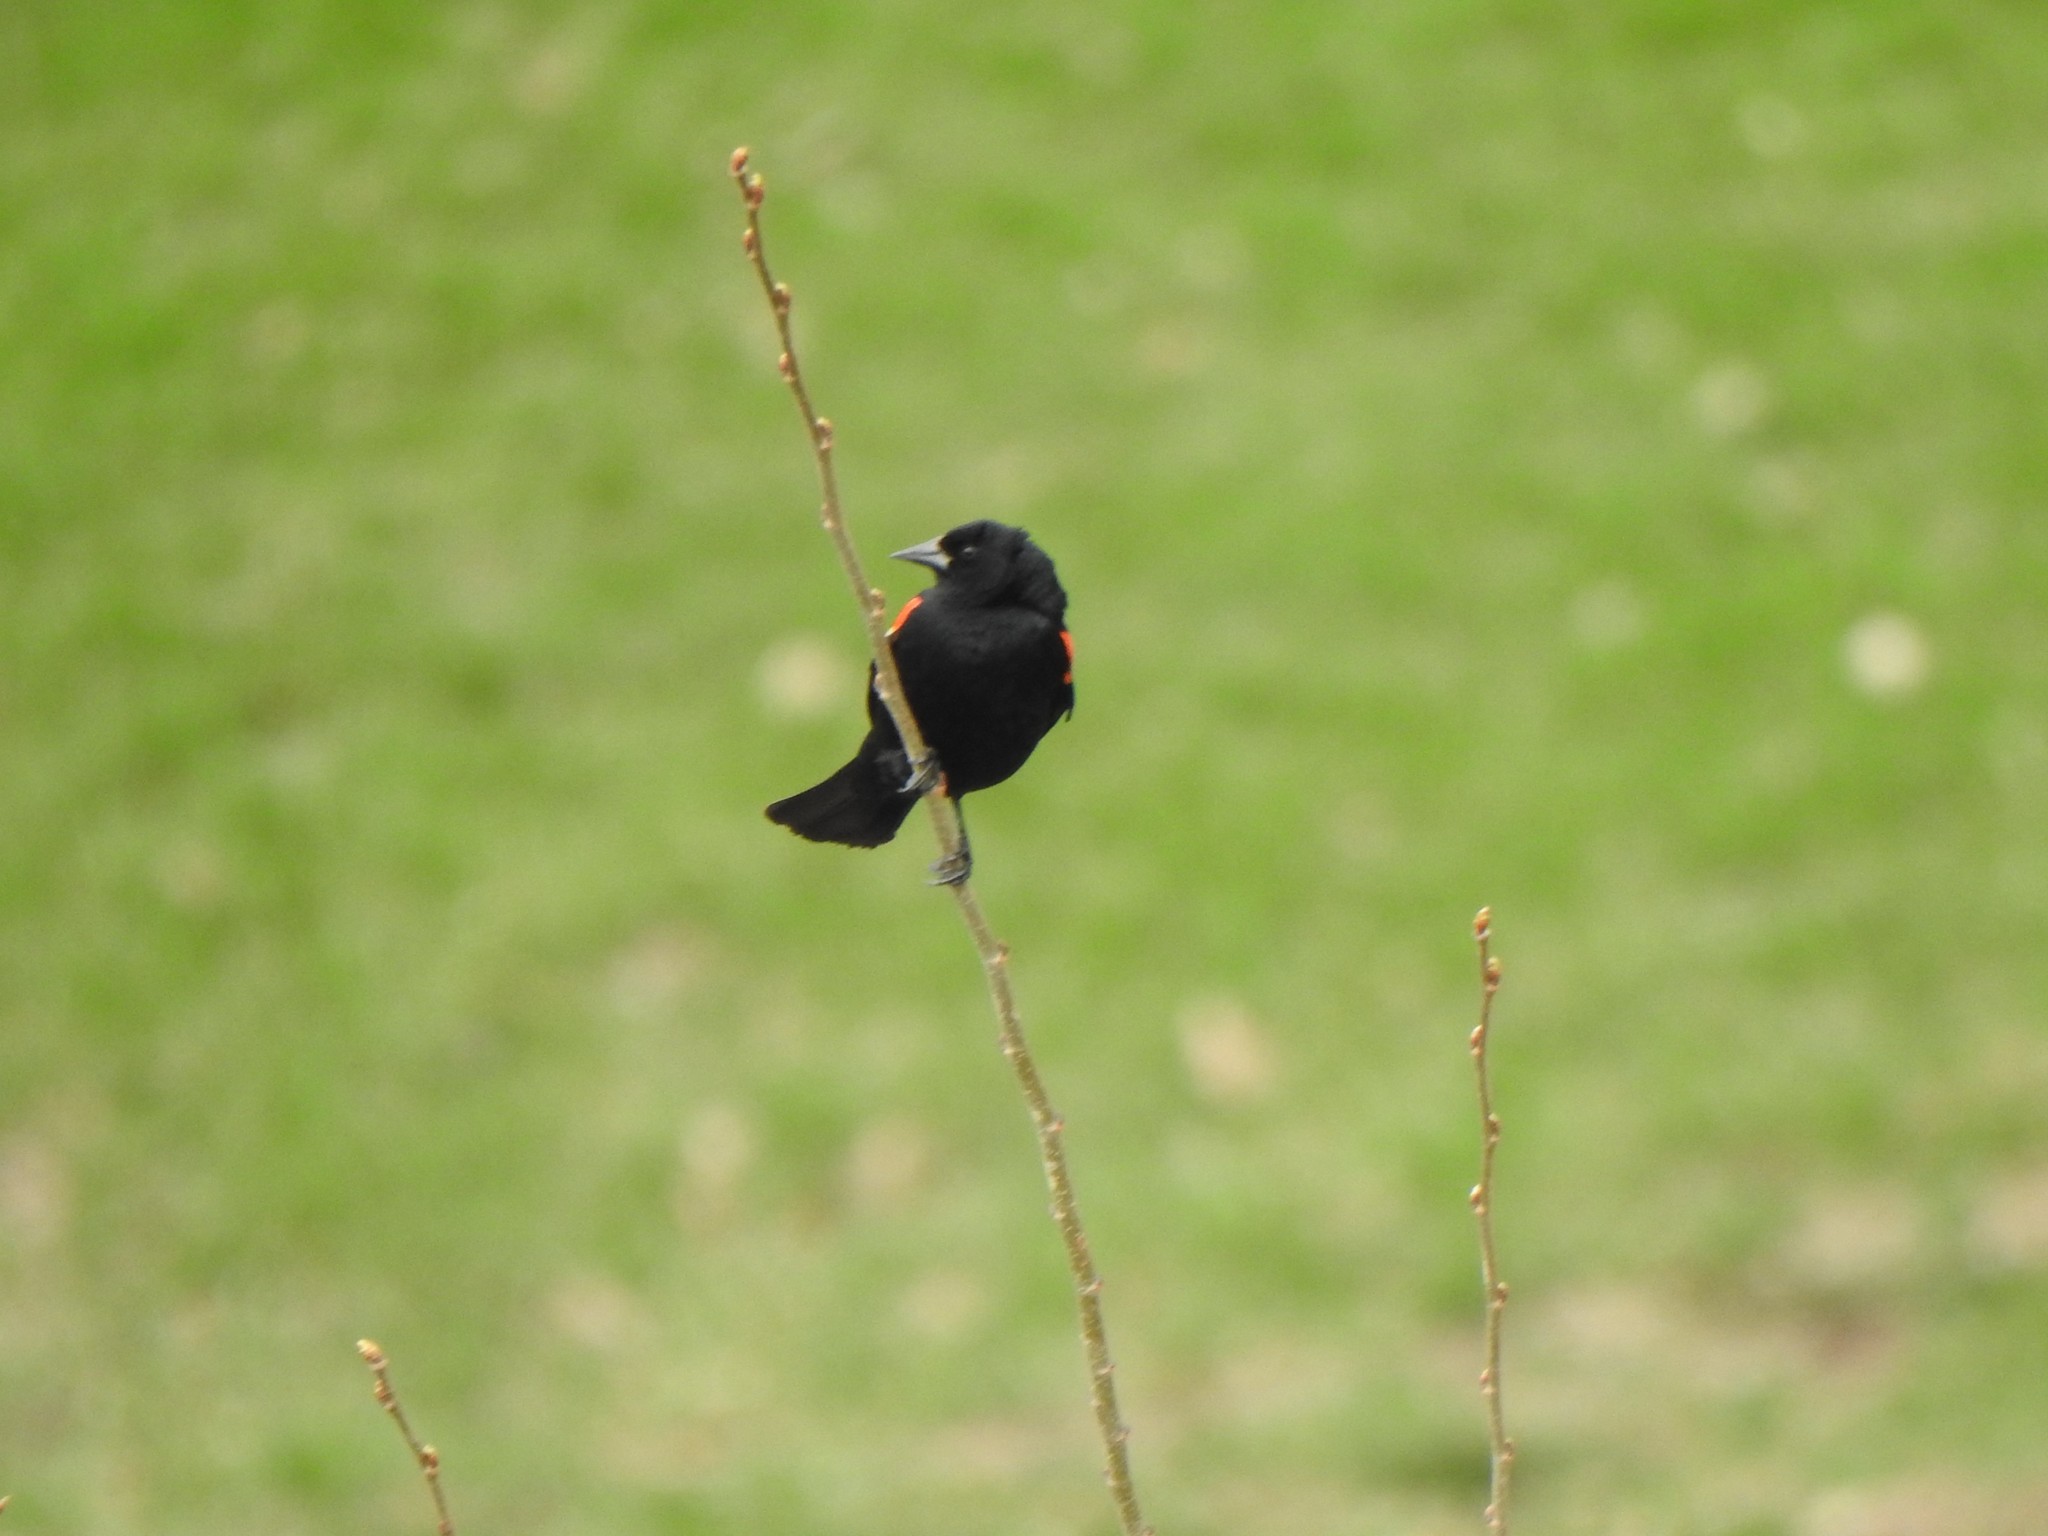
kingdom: Animalia
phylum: Chordata
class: Aves
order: Passeriformes
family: Icteridae
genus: Agelaius
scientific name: Agelaius phoeniceus
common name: Red-winged blackbird
